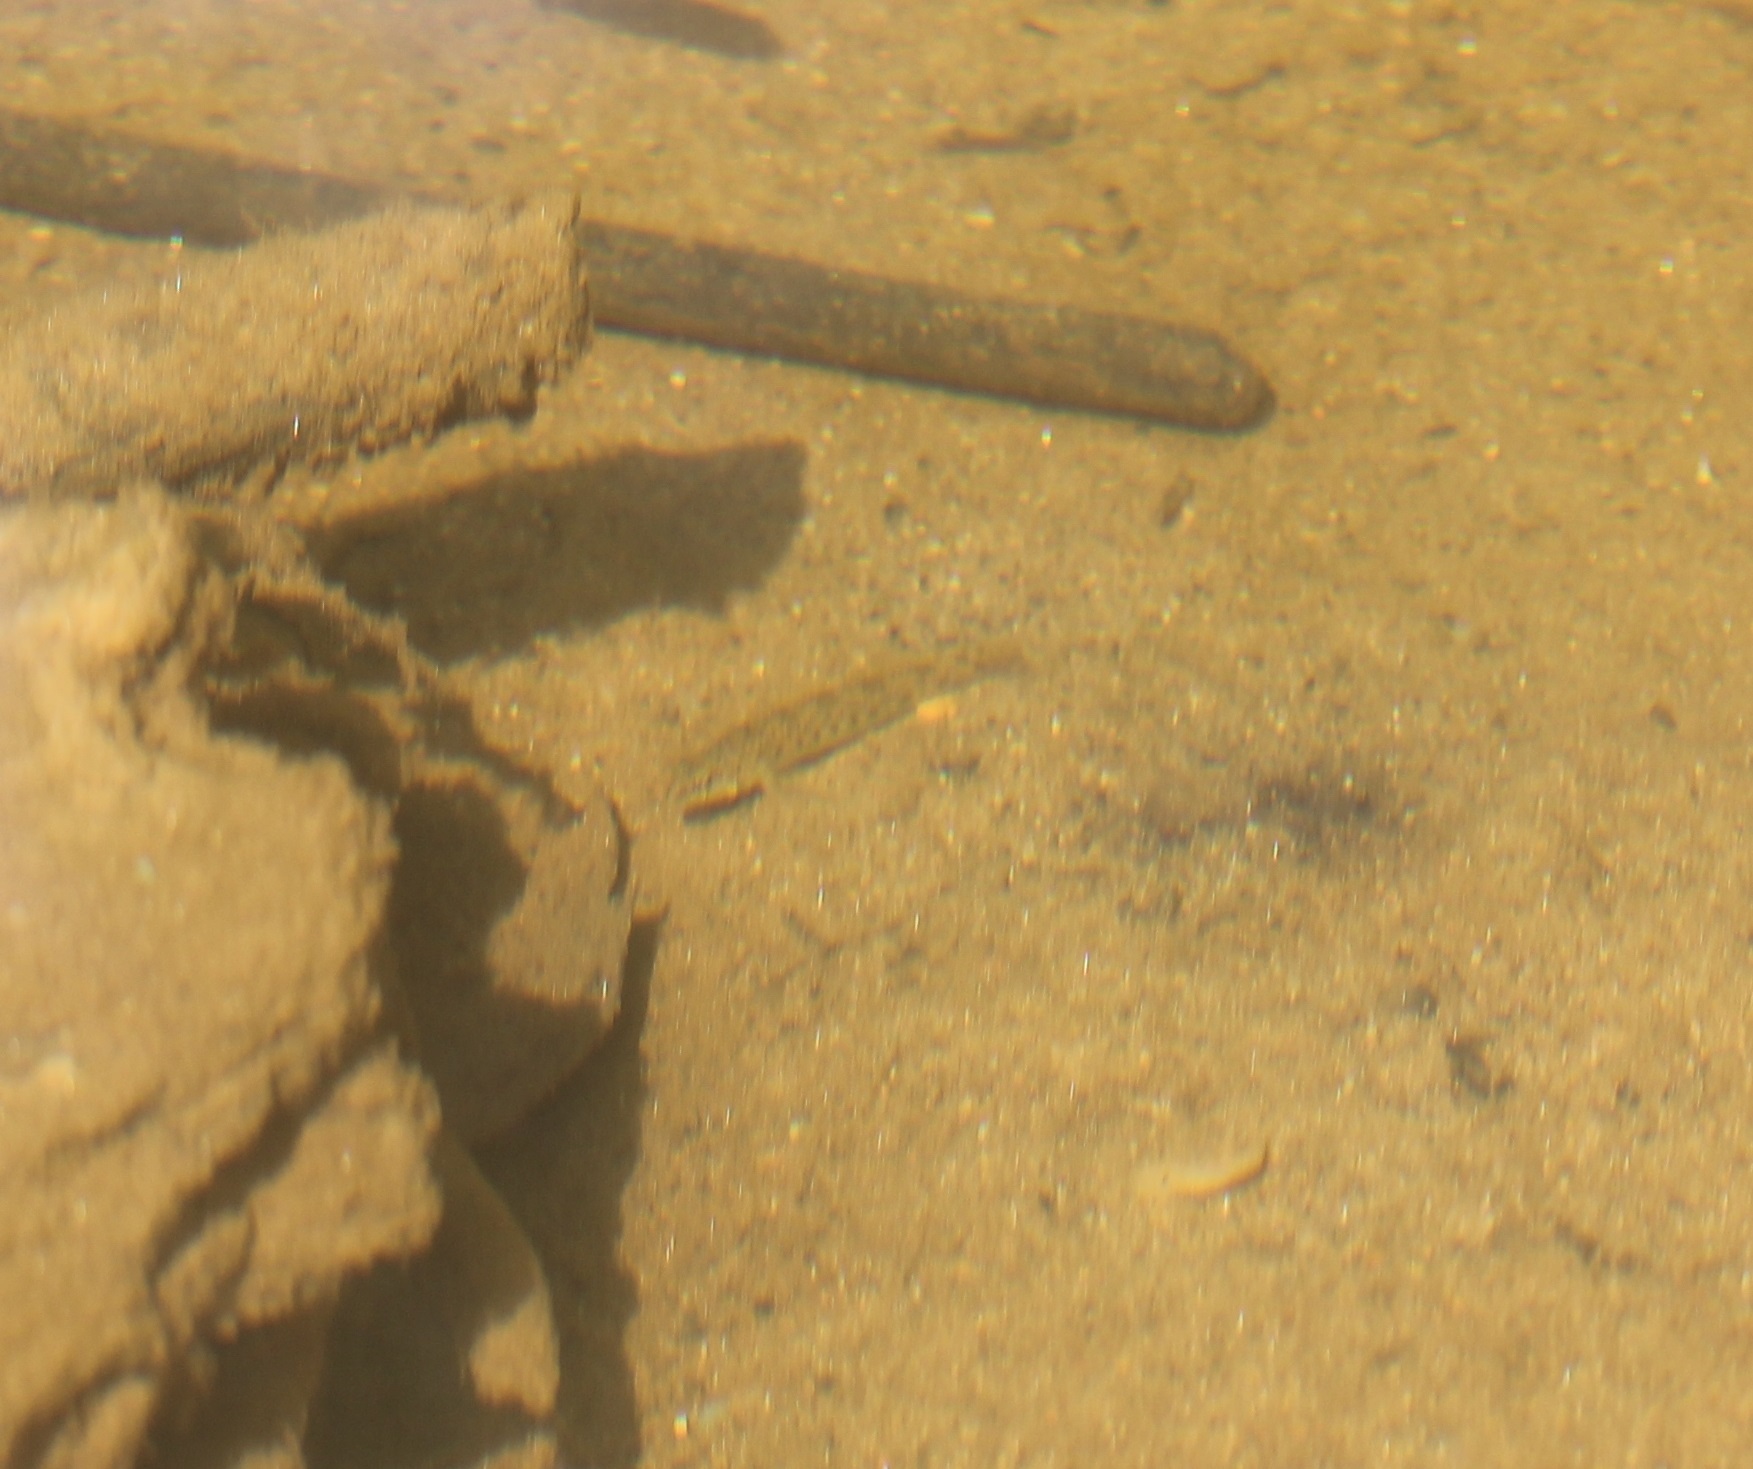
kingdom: Animalia
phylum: Chordata
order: Perciformes
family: Percidae
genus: Etheostoma
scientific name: Etheostoma olmstedi
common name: Tessellated darter
